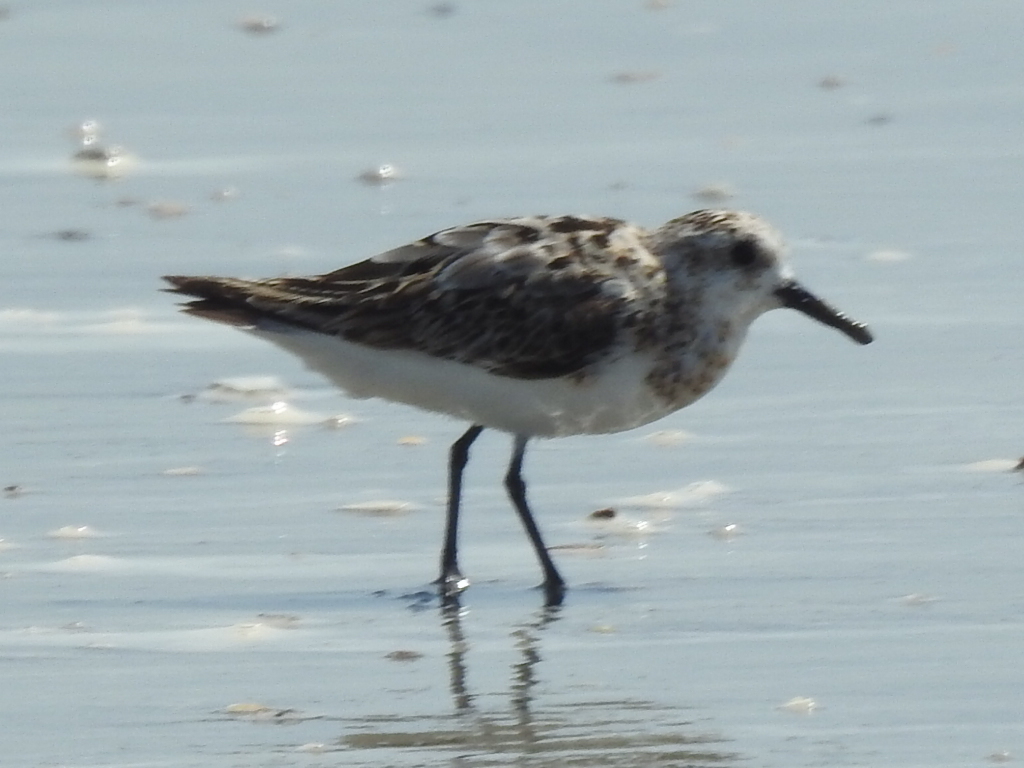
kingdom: Animalia
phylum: Chordata
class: Aves
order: Charadriiformes
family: Scolopacidae
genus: Calidris
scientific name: Calidris alba
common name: Sanderling
